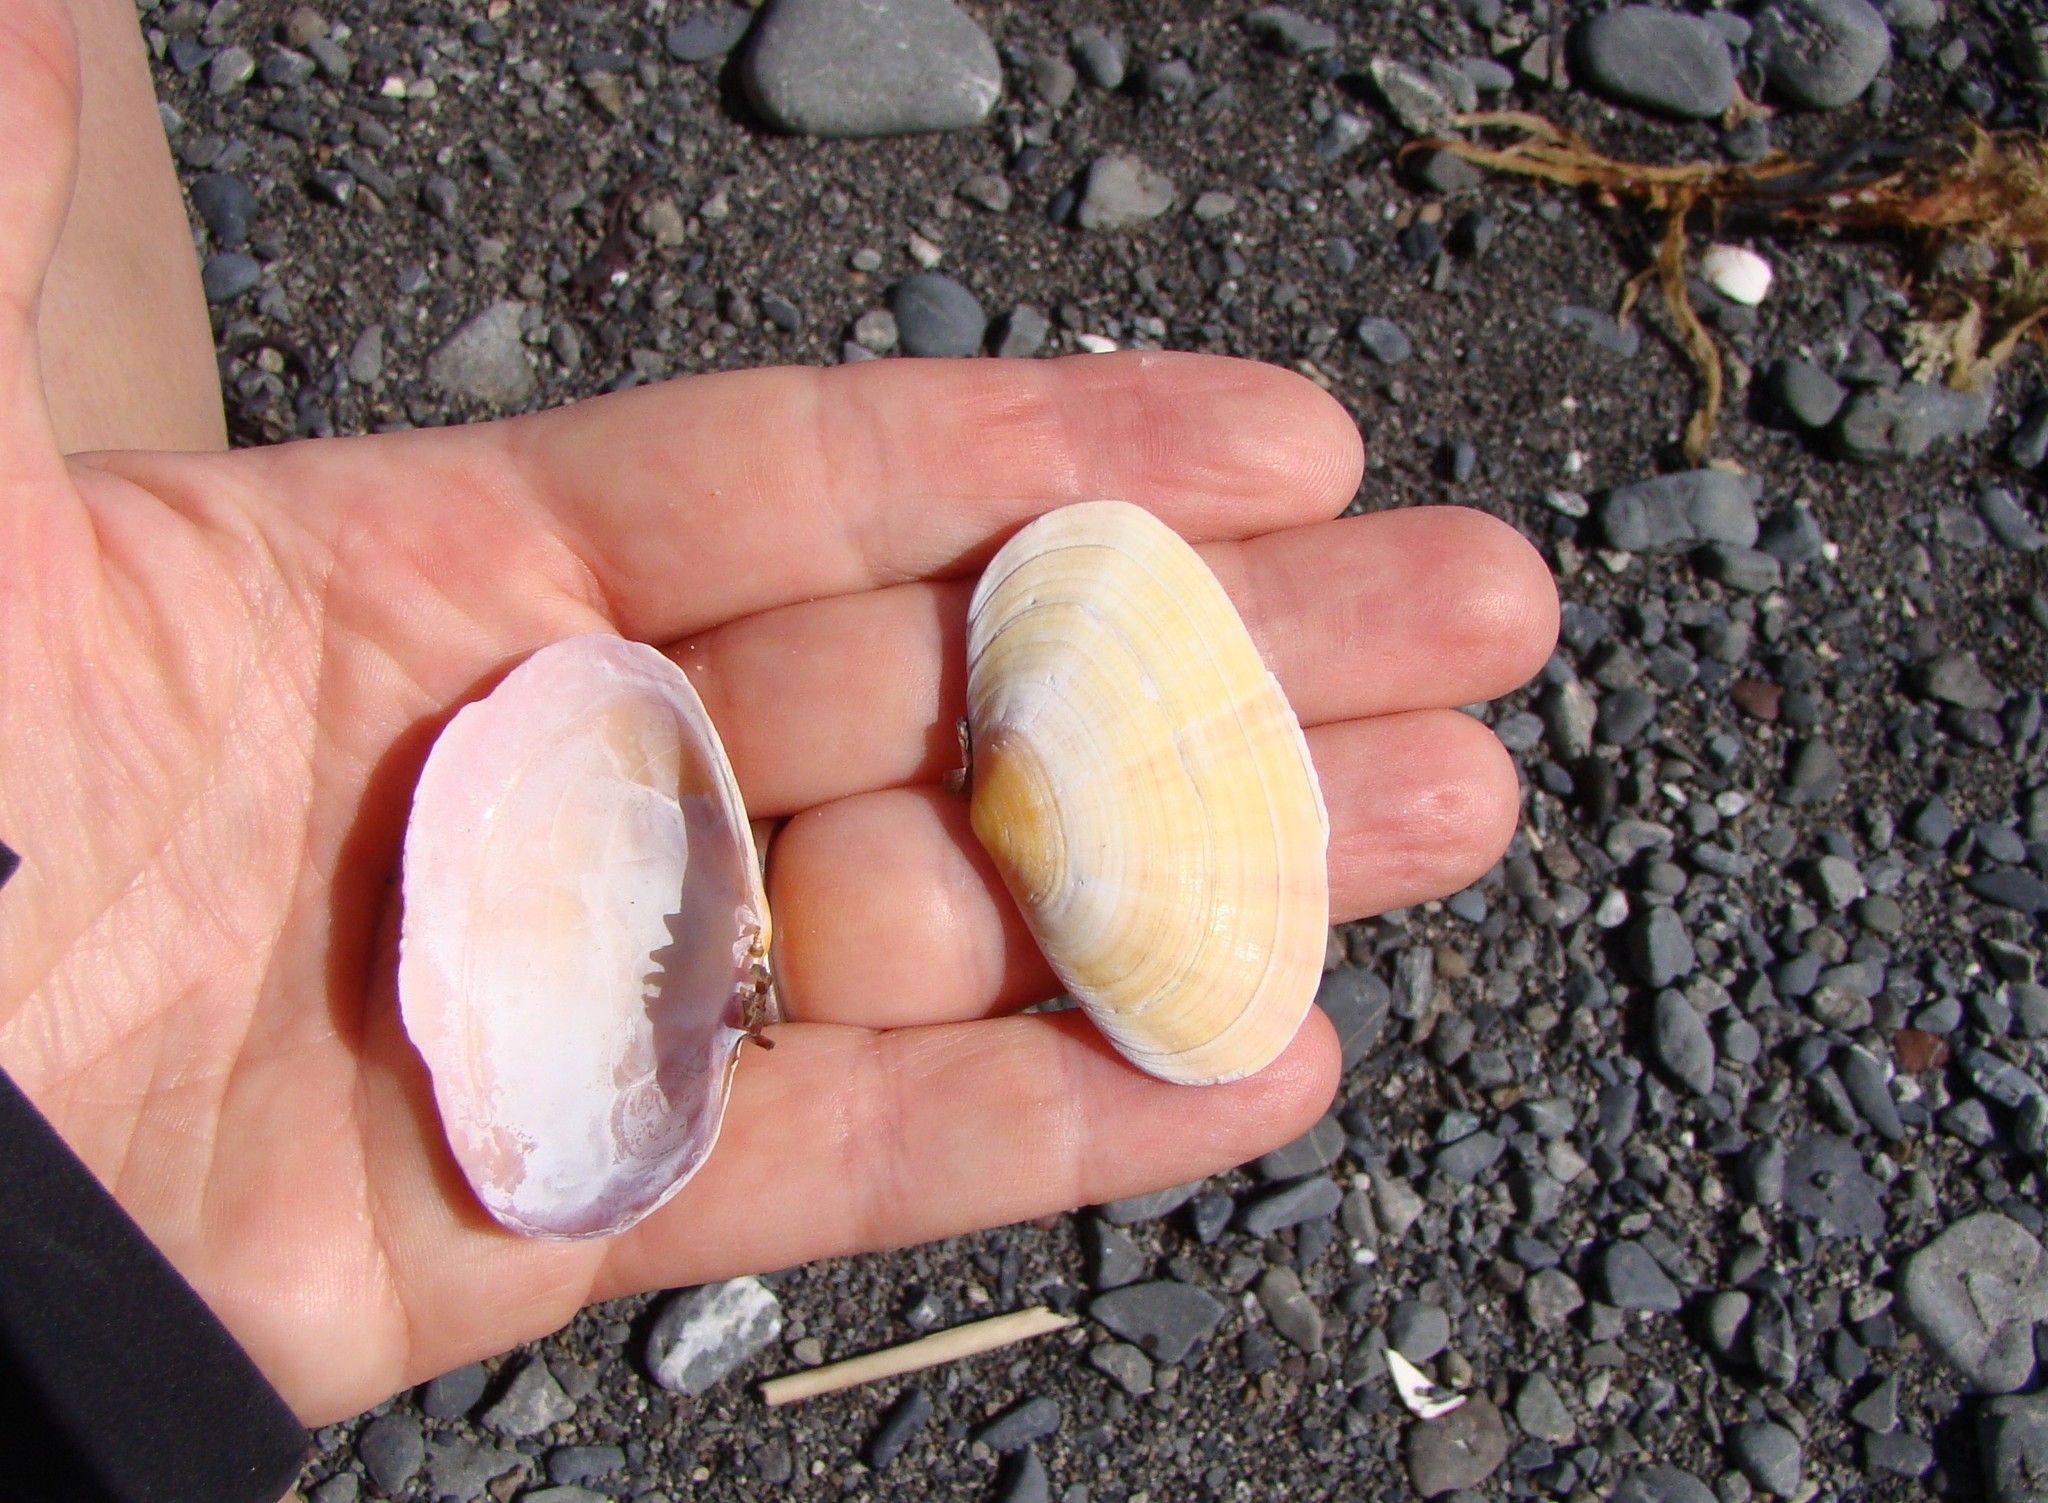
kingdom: Animalia
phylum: Mollusca
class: Bivalvia
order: Cardiida
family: Psammobiidae
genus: Gari
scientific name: Gari stangeri
